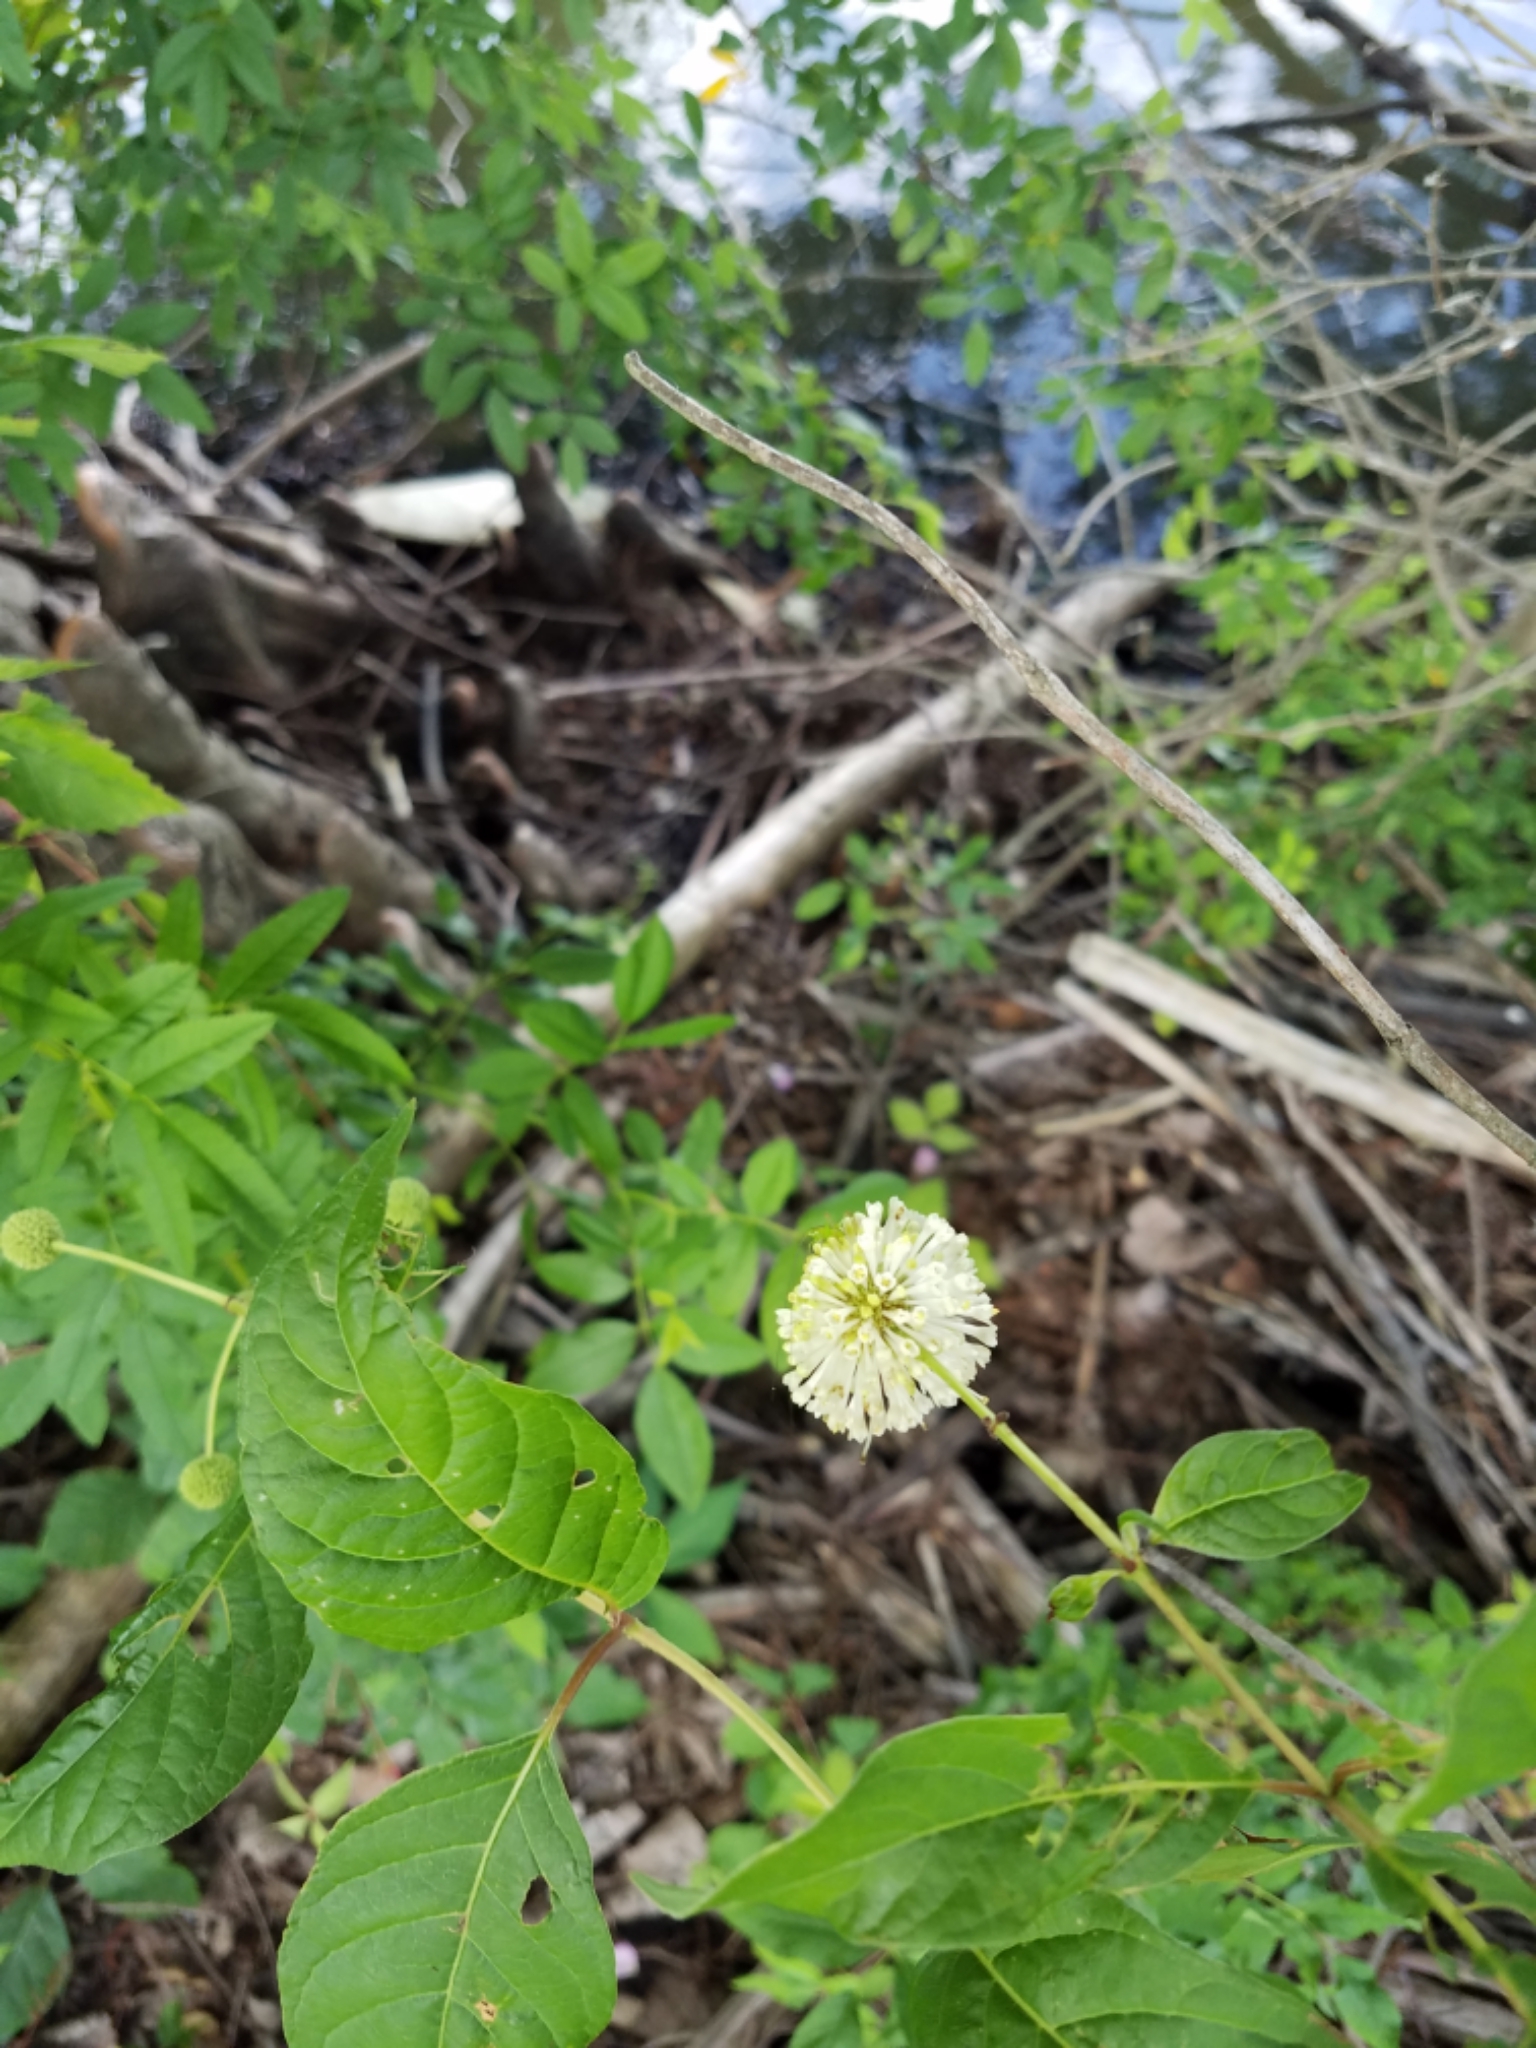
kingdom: Plantae
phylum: Tracheophyta
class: Magnoliopsida
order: Gentianales
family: Rubiaceae
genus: Cephalanthus
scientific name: Cephalanthus occidentalis
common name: Button-willow
